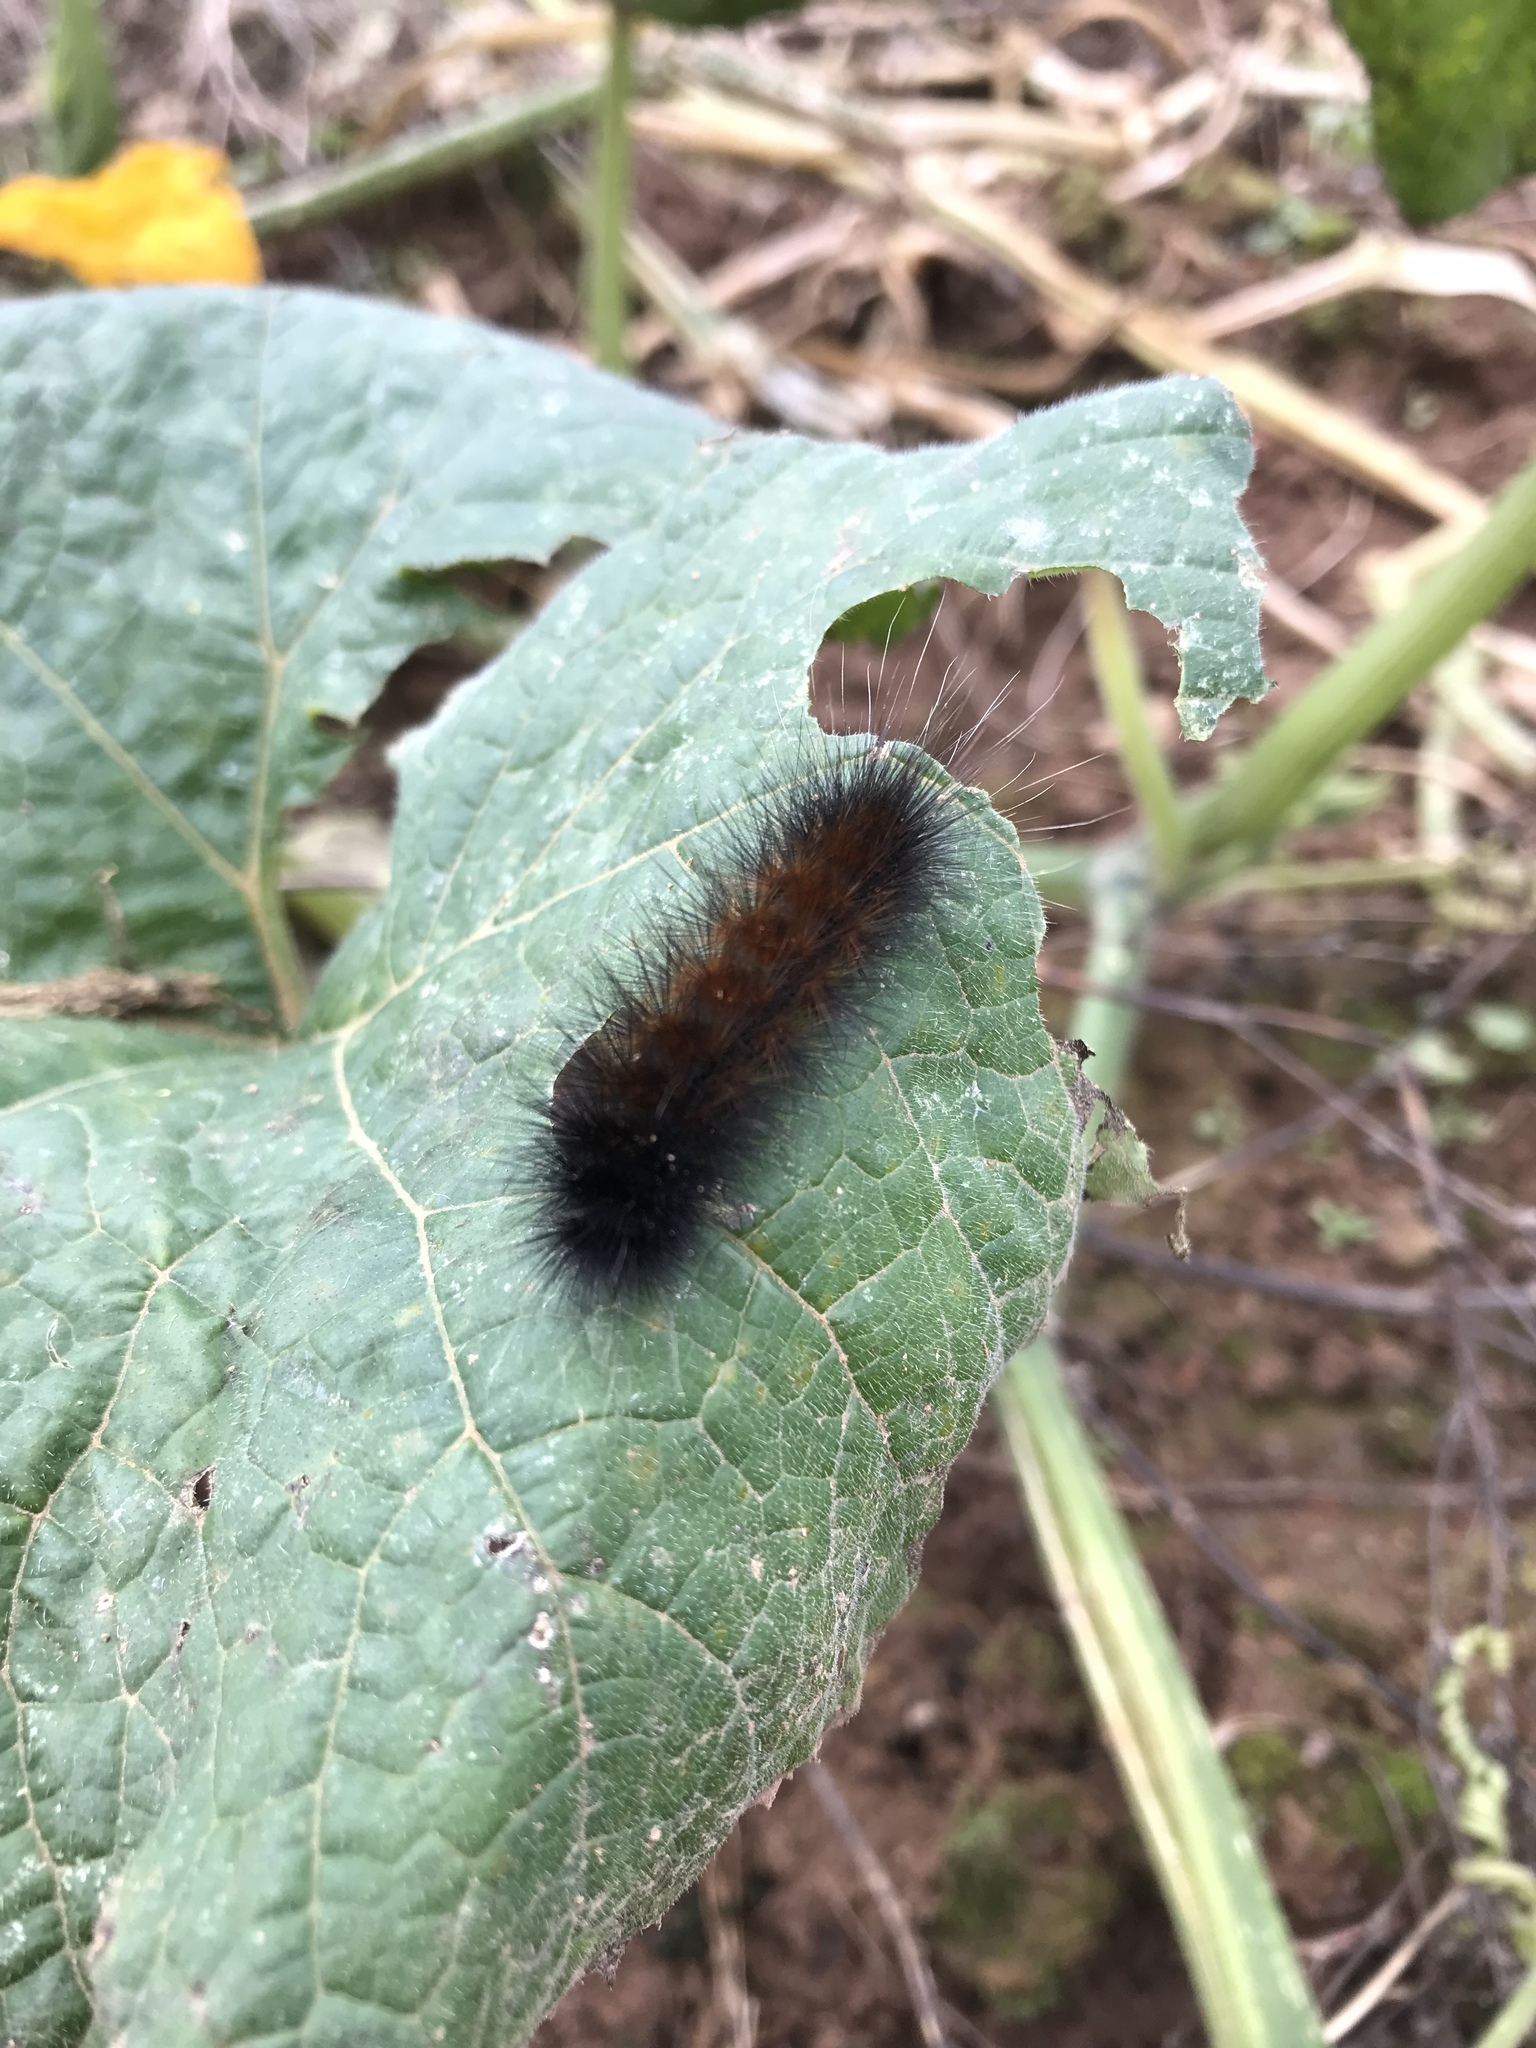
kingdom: Animalia
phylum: Arthropoda
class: Insecta
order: Lepidoptera
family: Erebidae
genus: Pyrrharctia
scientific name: Pyrrharctia isabella
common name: Isabella tiger moth
